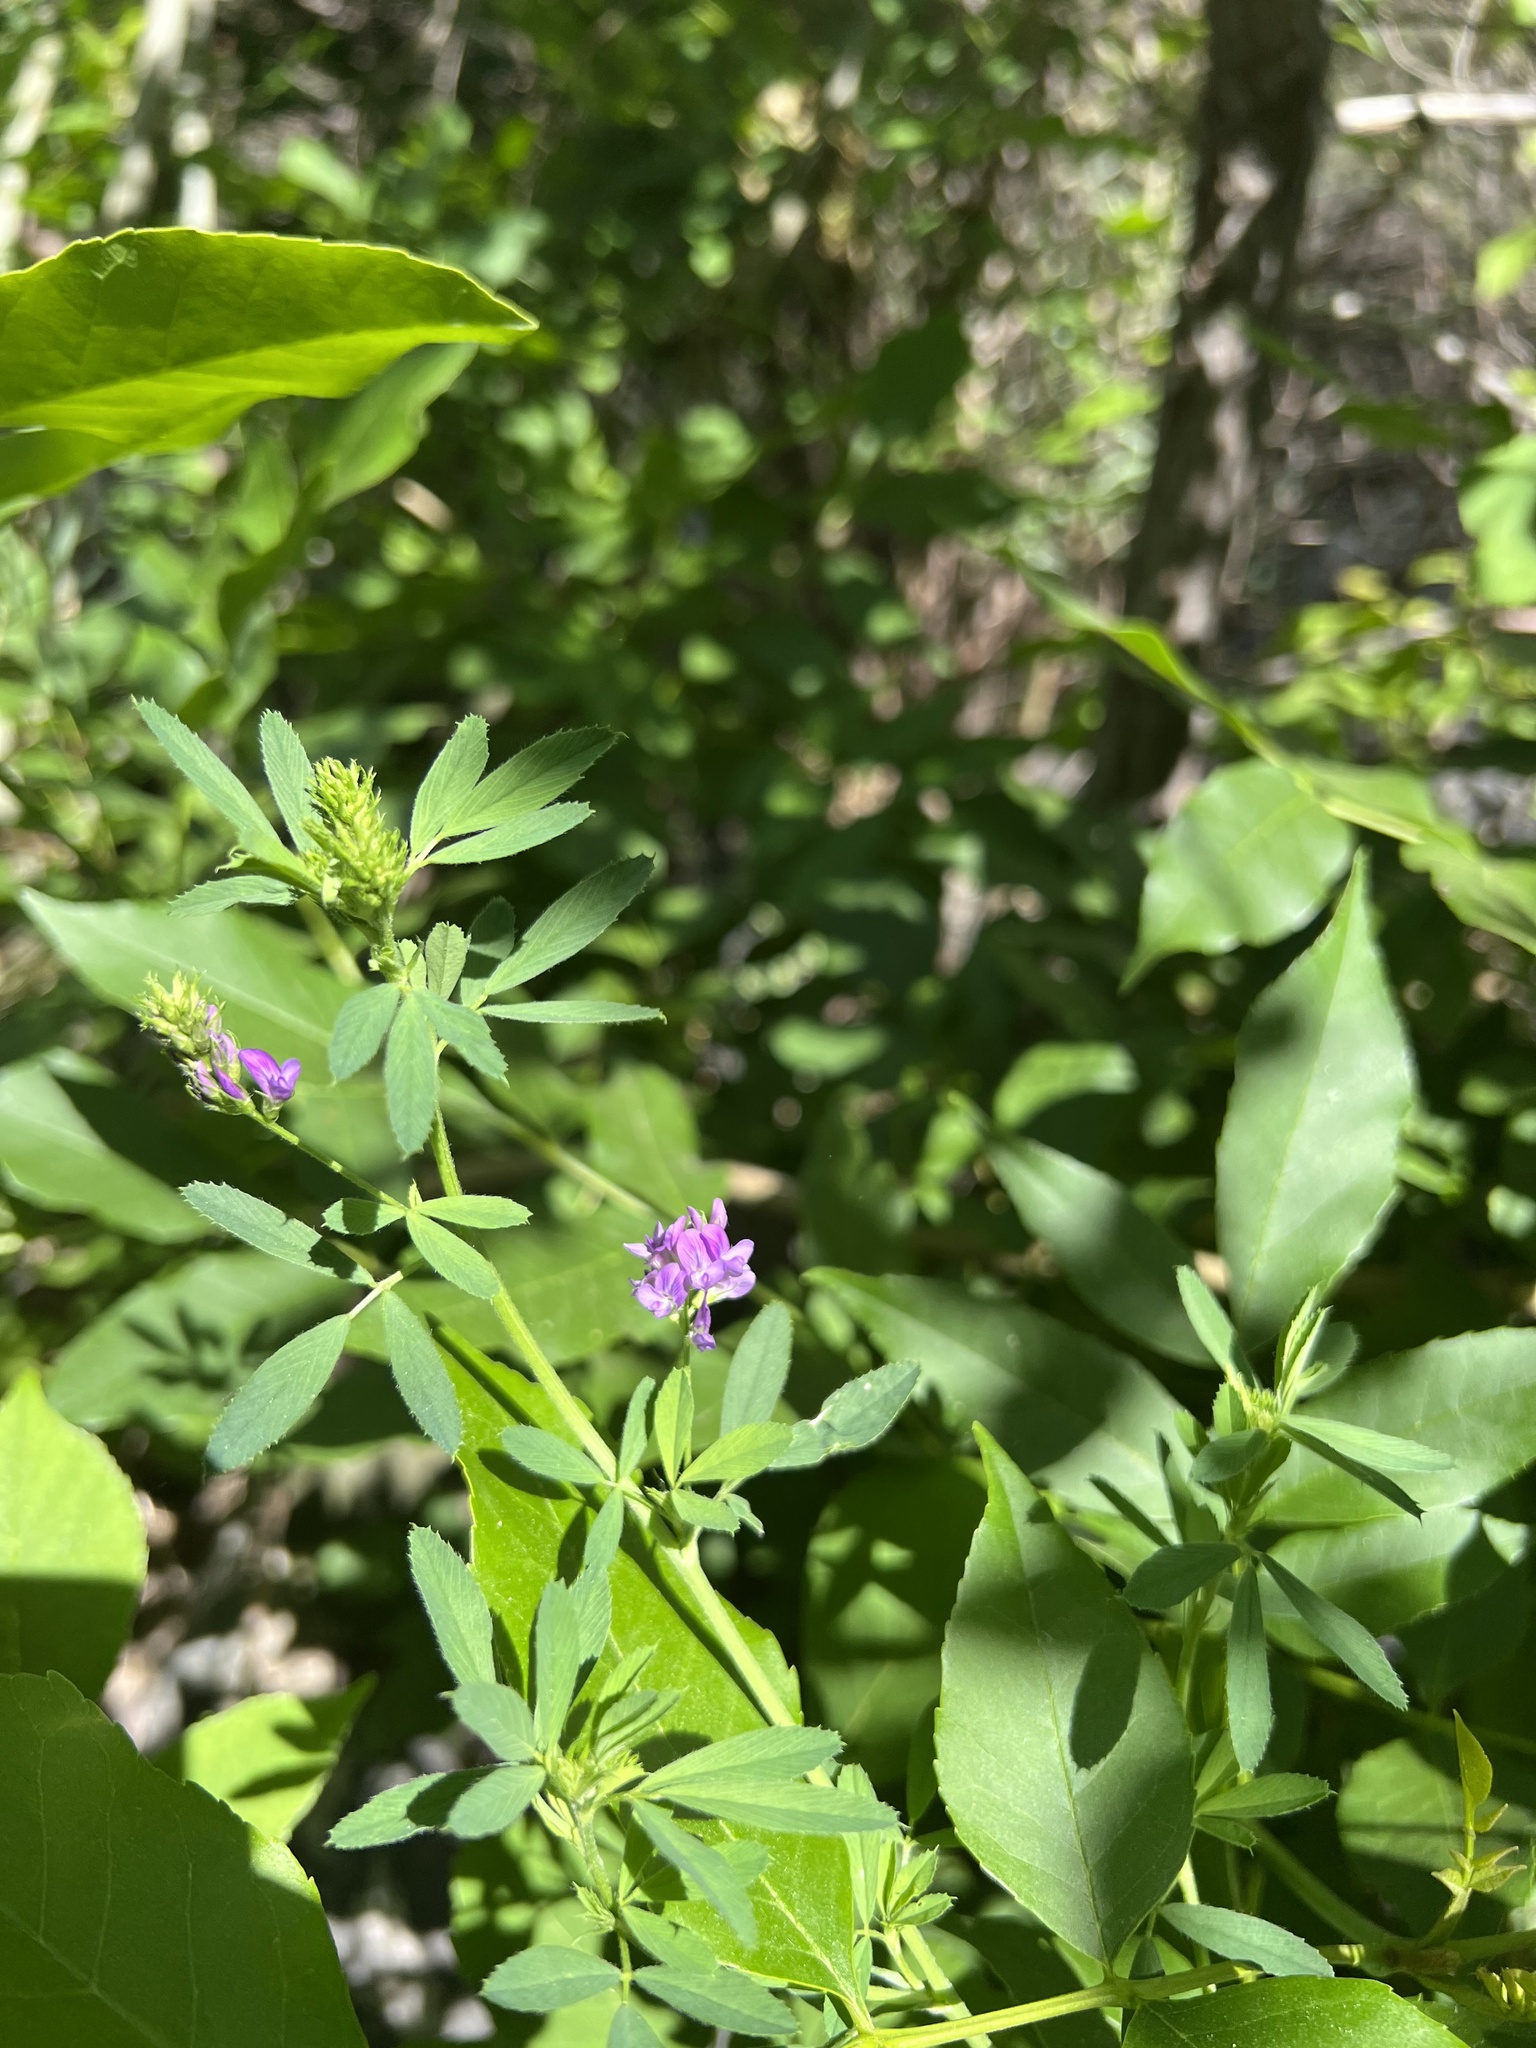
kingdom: Plantae
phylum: Tracheophyta
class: Magnoliopsida
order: Fabales
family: Fabaceae
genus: Medicago
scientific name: Medicago sativa
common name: Alfalfa
